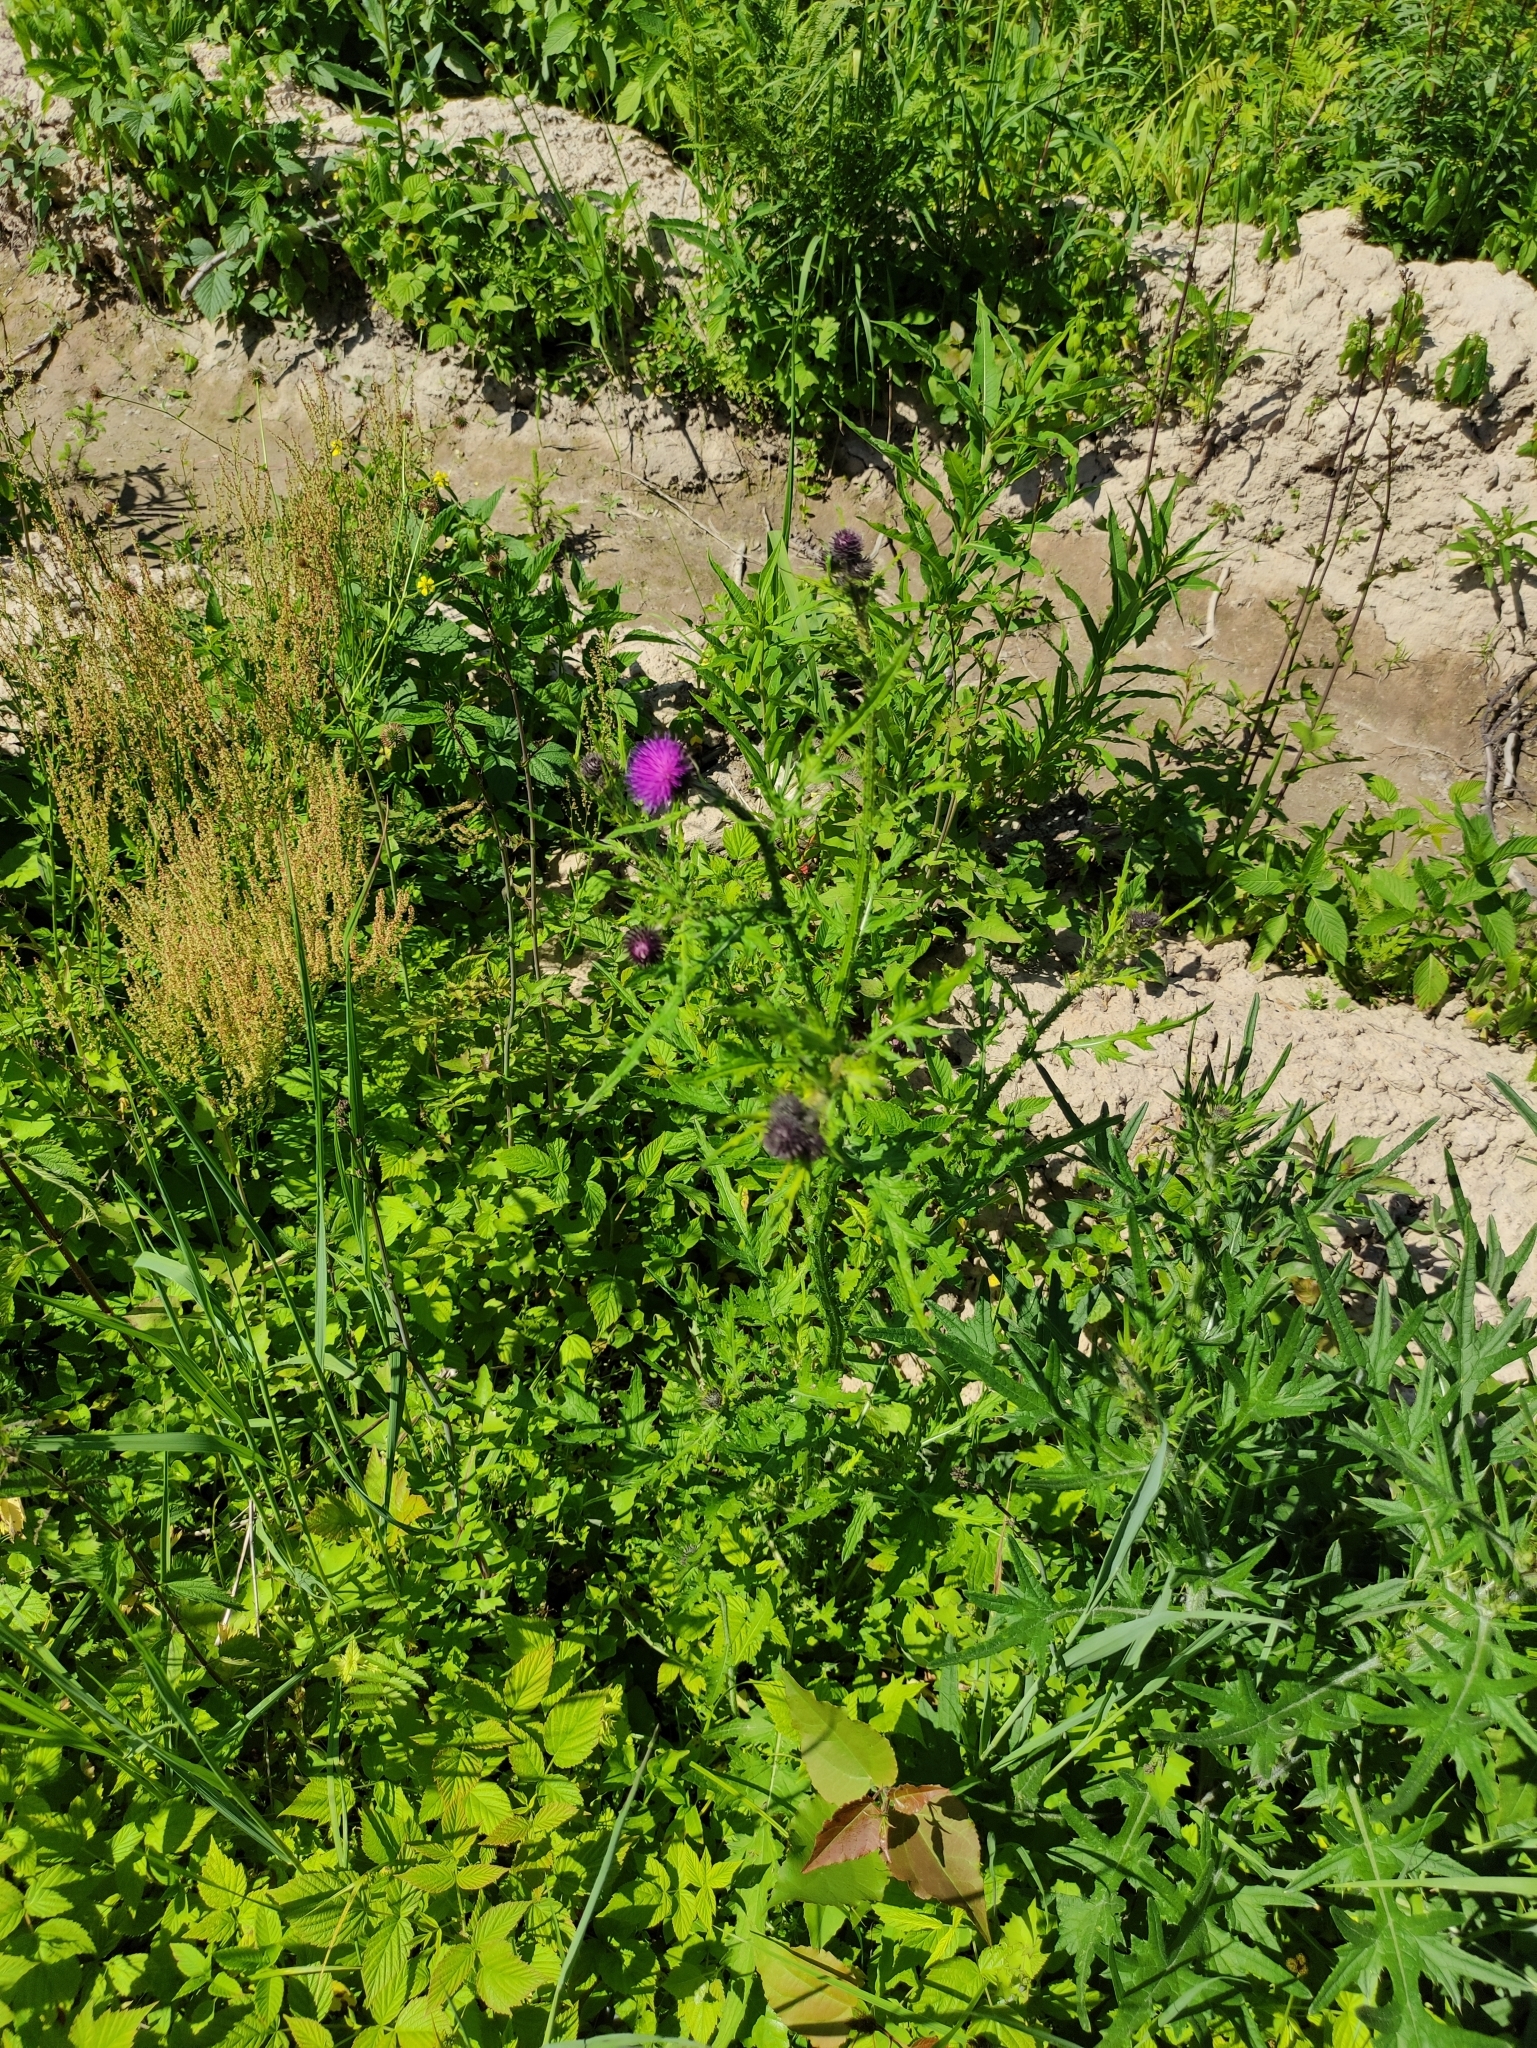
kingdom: Plantae
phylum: Tracheophyta
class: Magnoliopsida
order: Asterales
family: Asteraceae
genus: Carduus
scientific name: Carduus crispus
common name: Welted thistle
